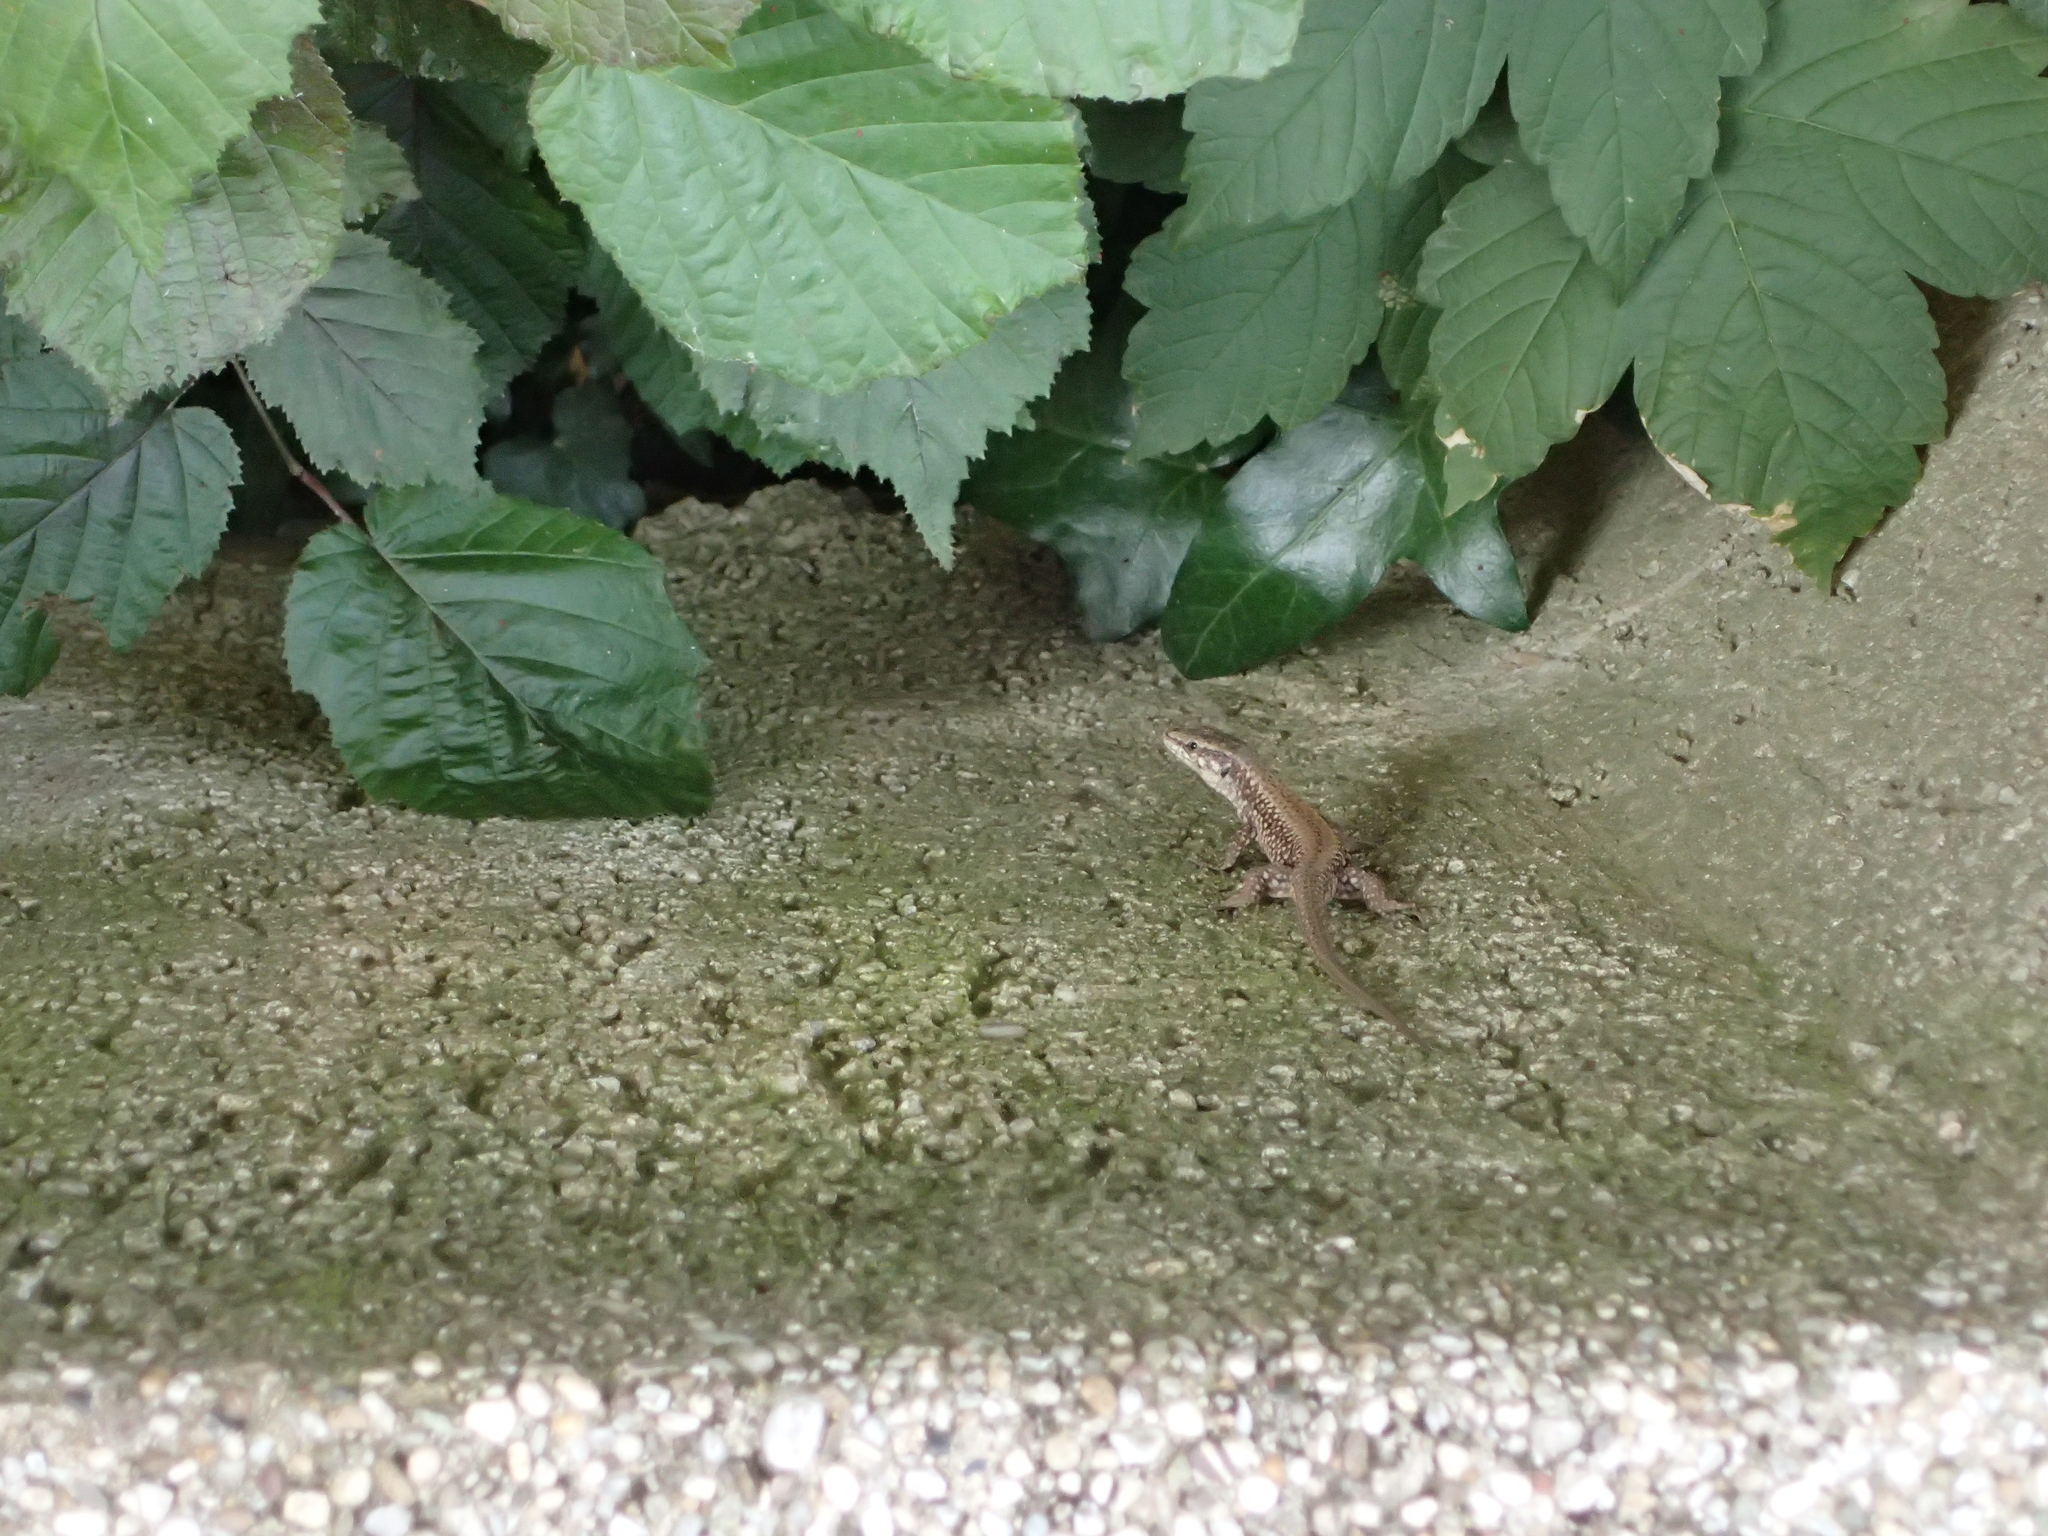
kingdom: Animalia
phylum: Chordata
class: Squamata
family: Lacertidae
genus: Podarcis
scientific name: Podarcis muralis
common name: Common wall lizard
